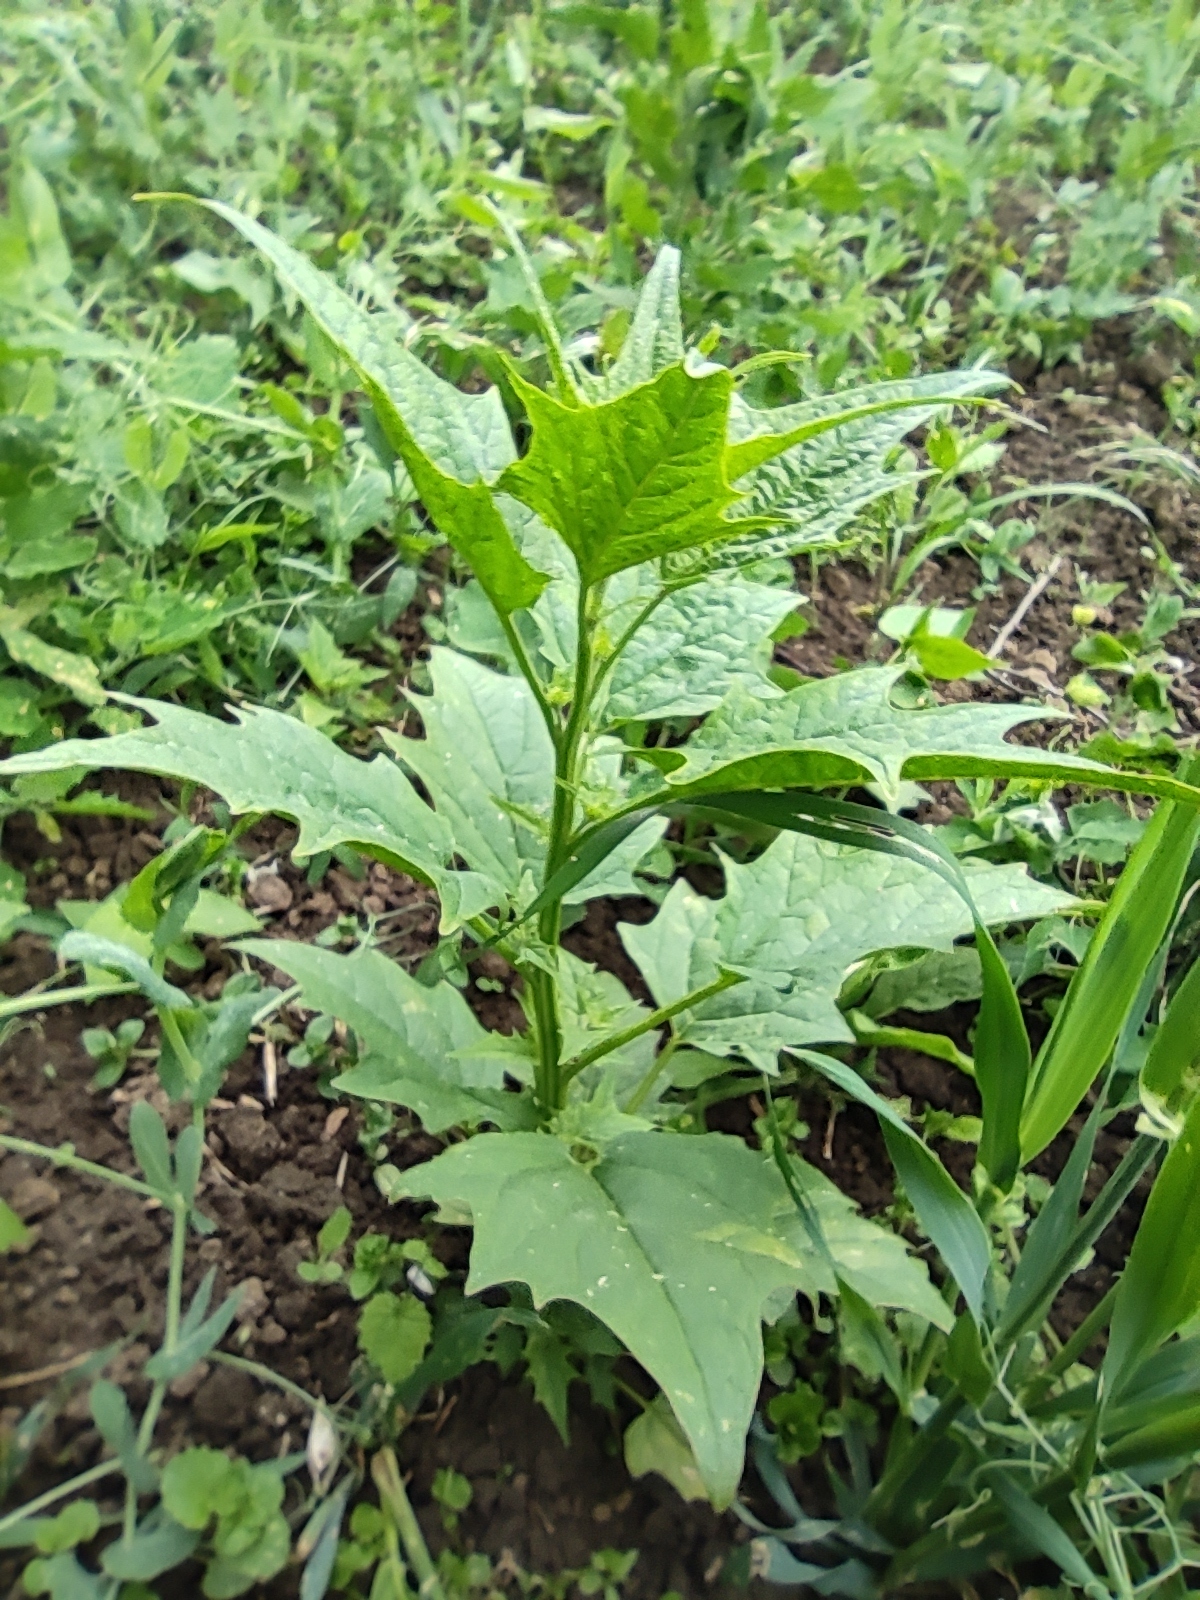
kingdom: Plantae
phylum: Tracheophyta
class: Magnoliopsida
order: Caryophyllales
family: Amaranthaceae
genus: Chenopodiastrum
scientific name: Chenopodiastrum hybridum
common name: Mapleleaf goosefoot
